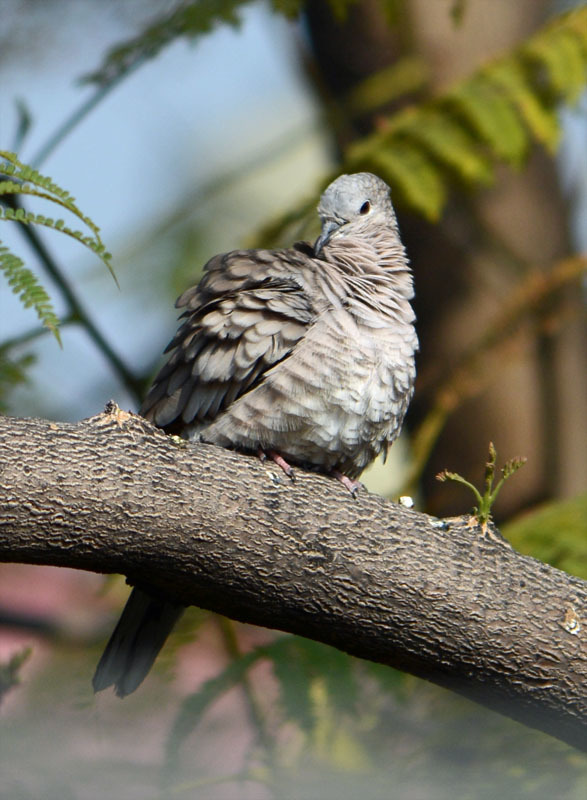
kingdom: Animalia
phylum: Chordata
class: Aves
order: Columbiformes
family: Columbidae
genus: Columbina
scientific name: Columbina inca
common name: Inca dove
